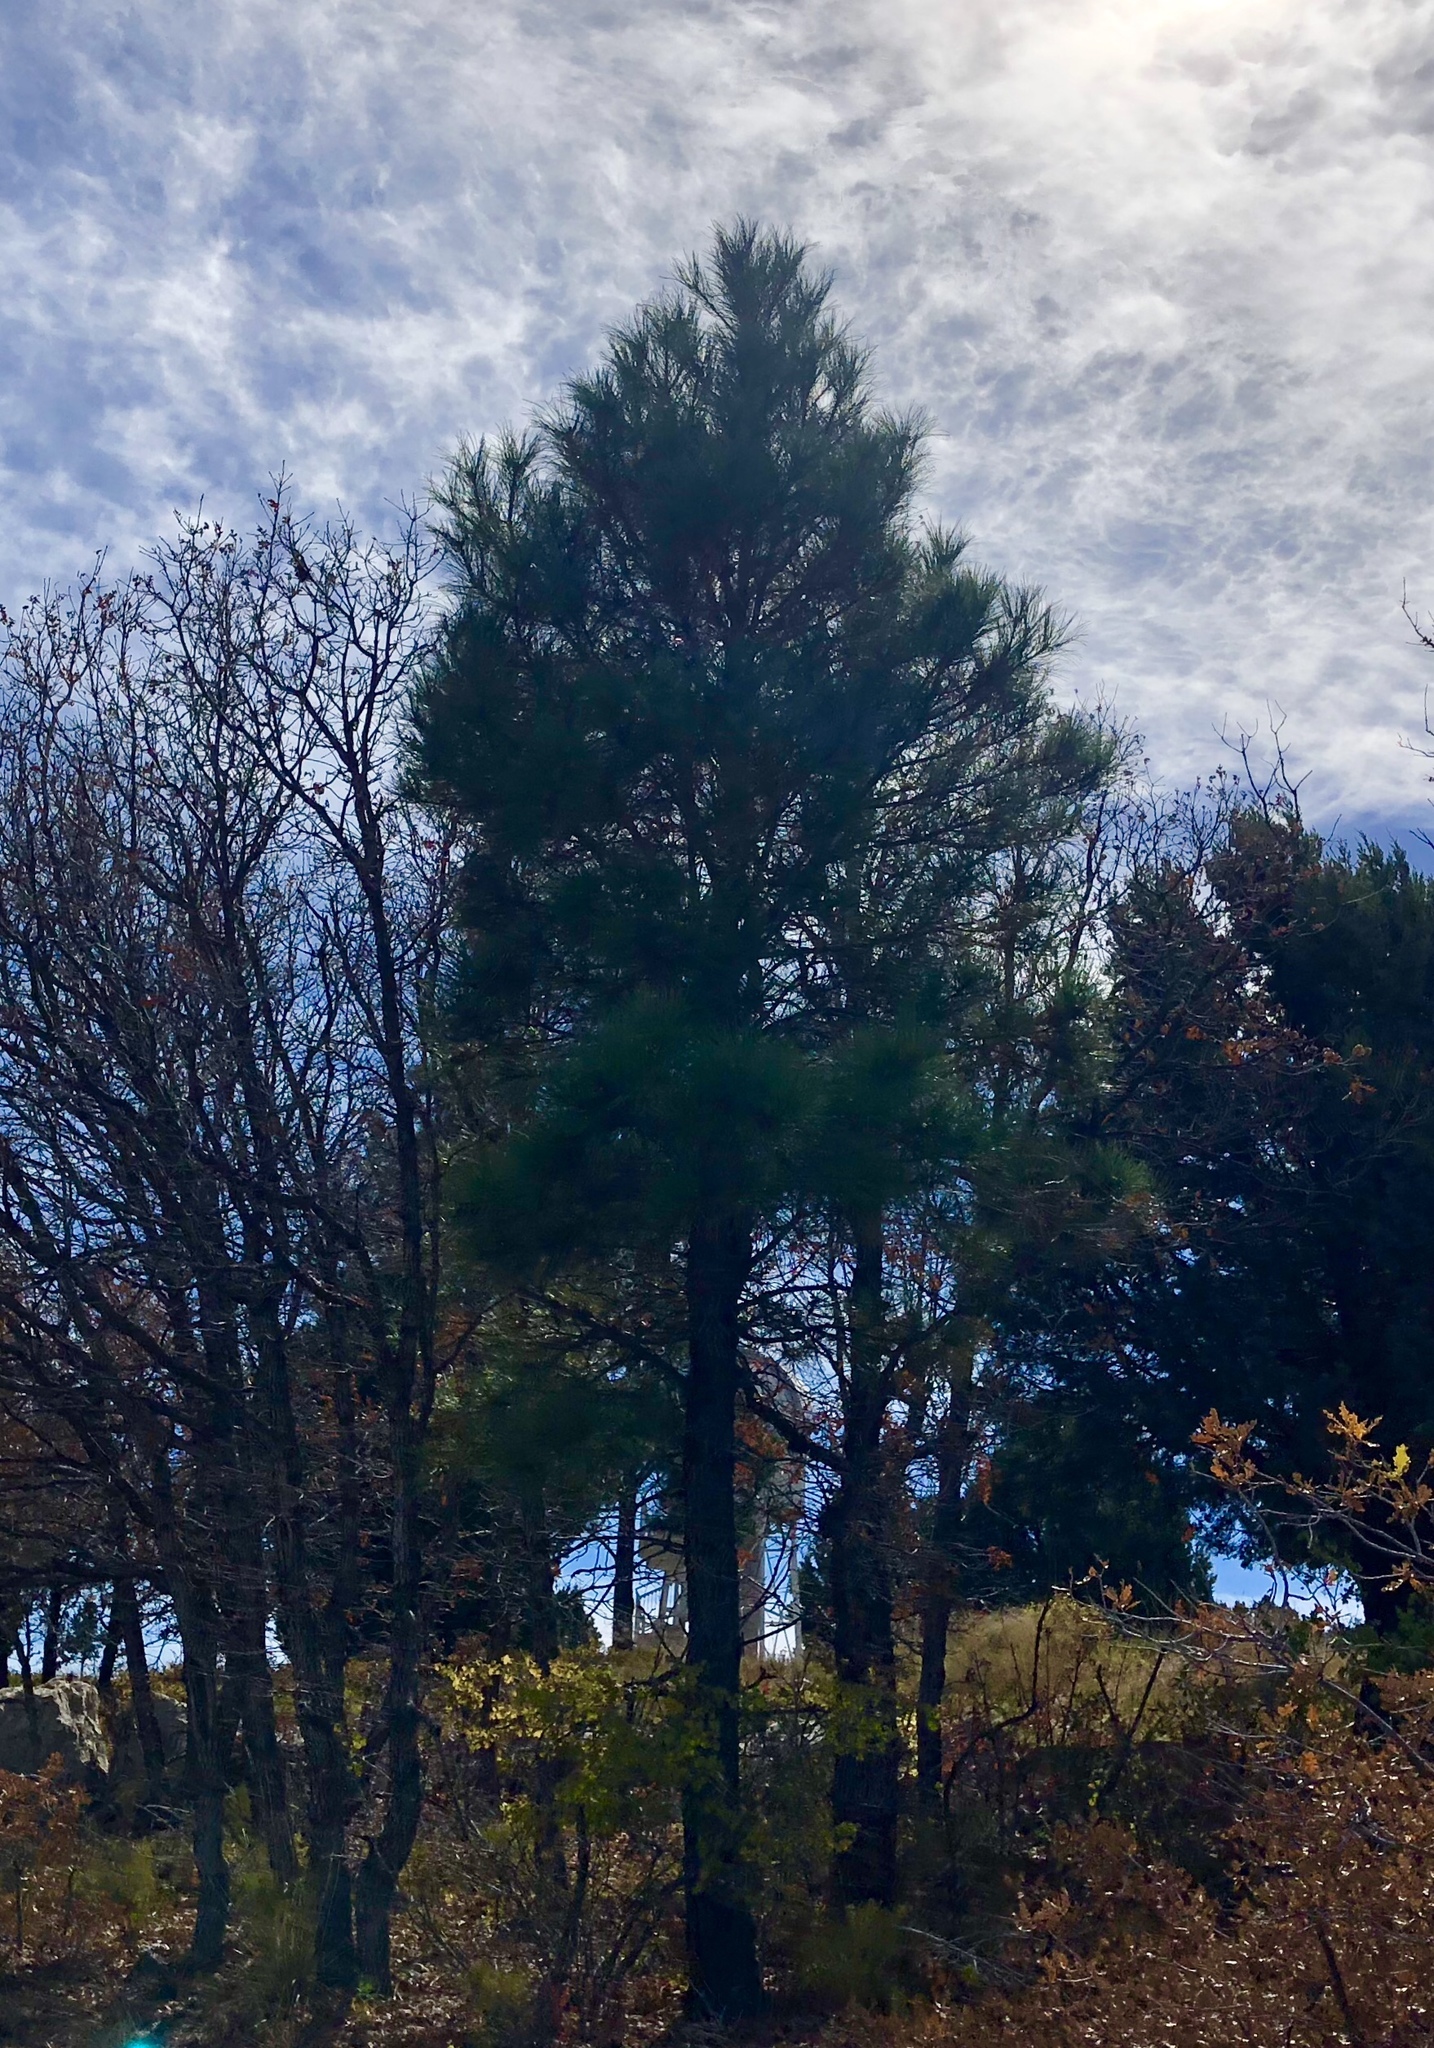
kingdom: Plantae
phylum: Tracheophyta
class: Pinopsida
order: Pinales
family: Pinaceae
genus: Pinus
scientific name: Pinus ponderosa
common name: Western yellow-pine
